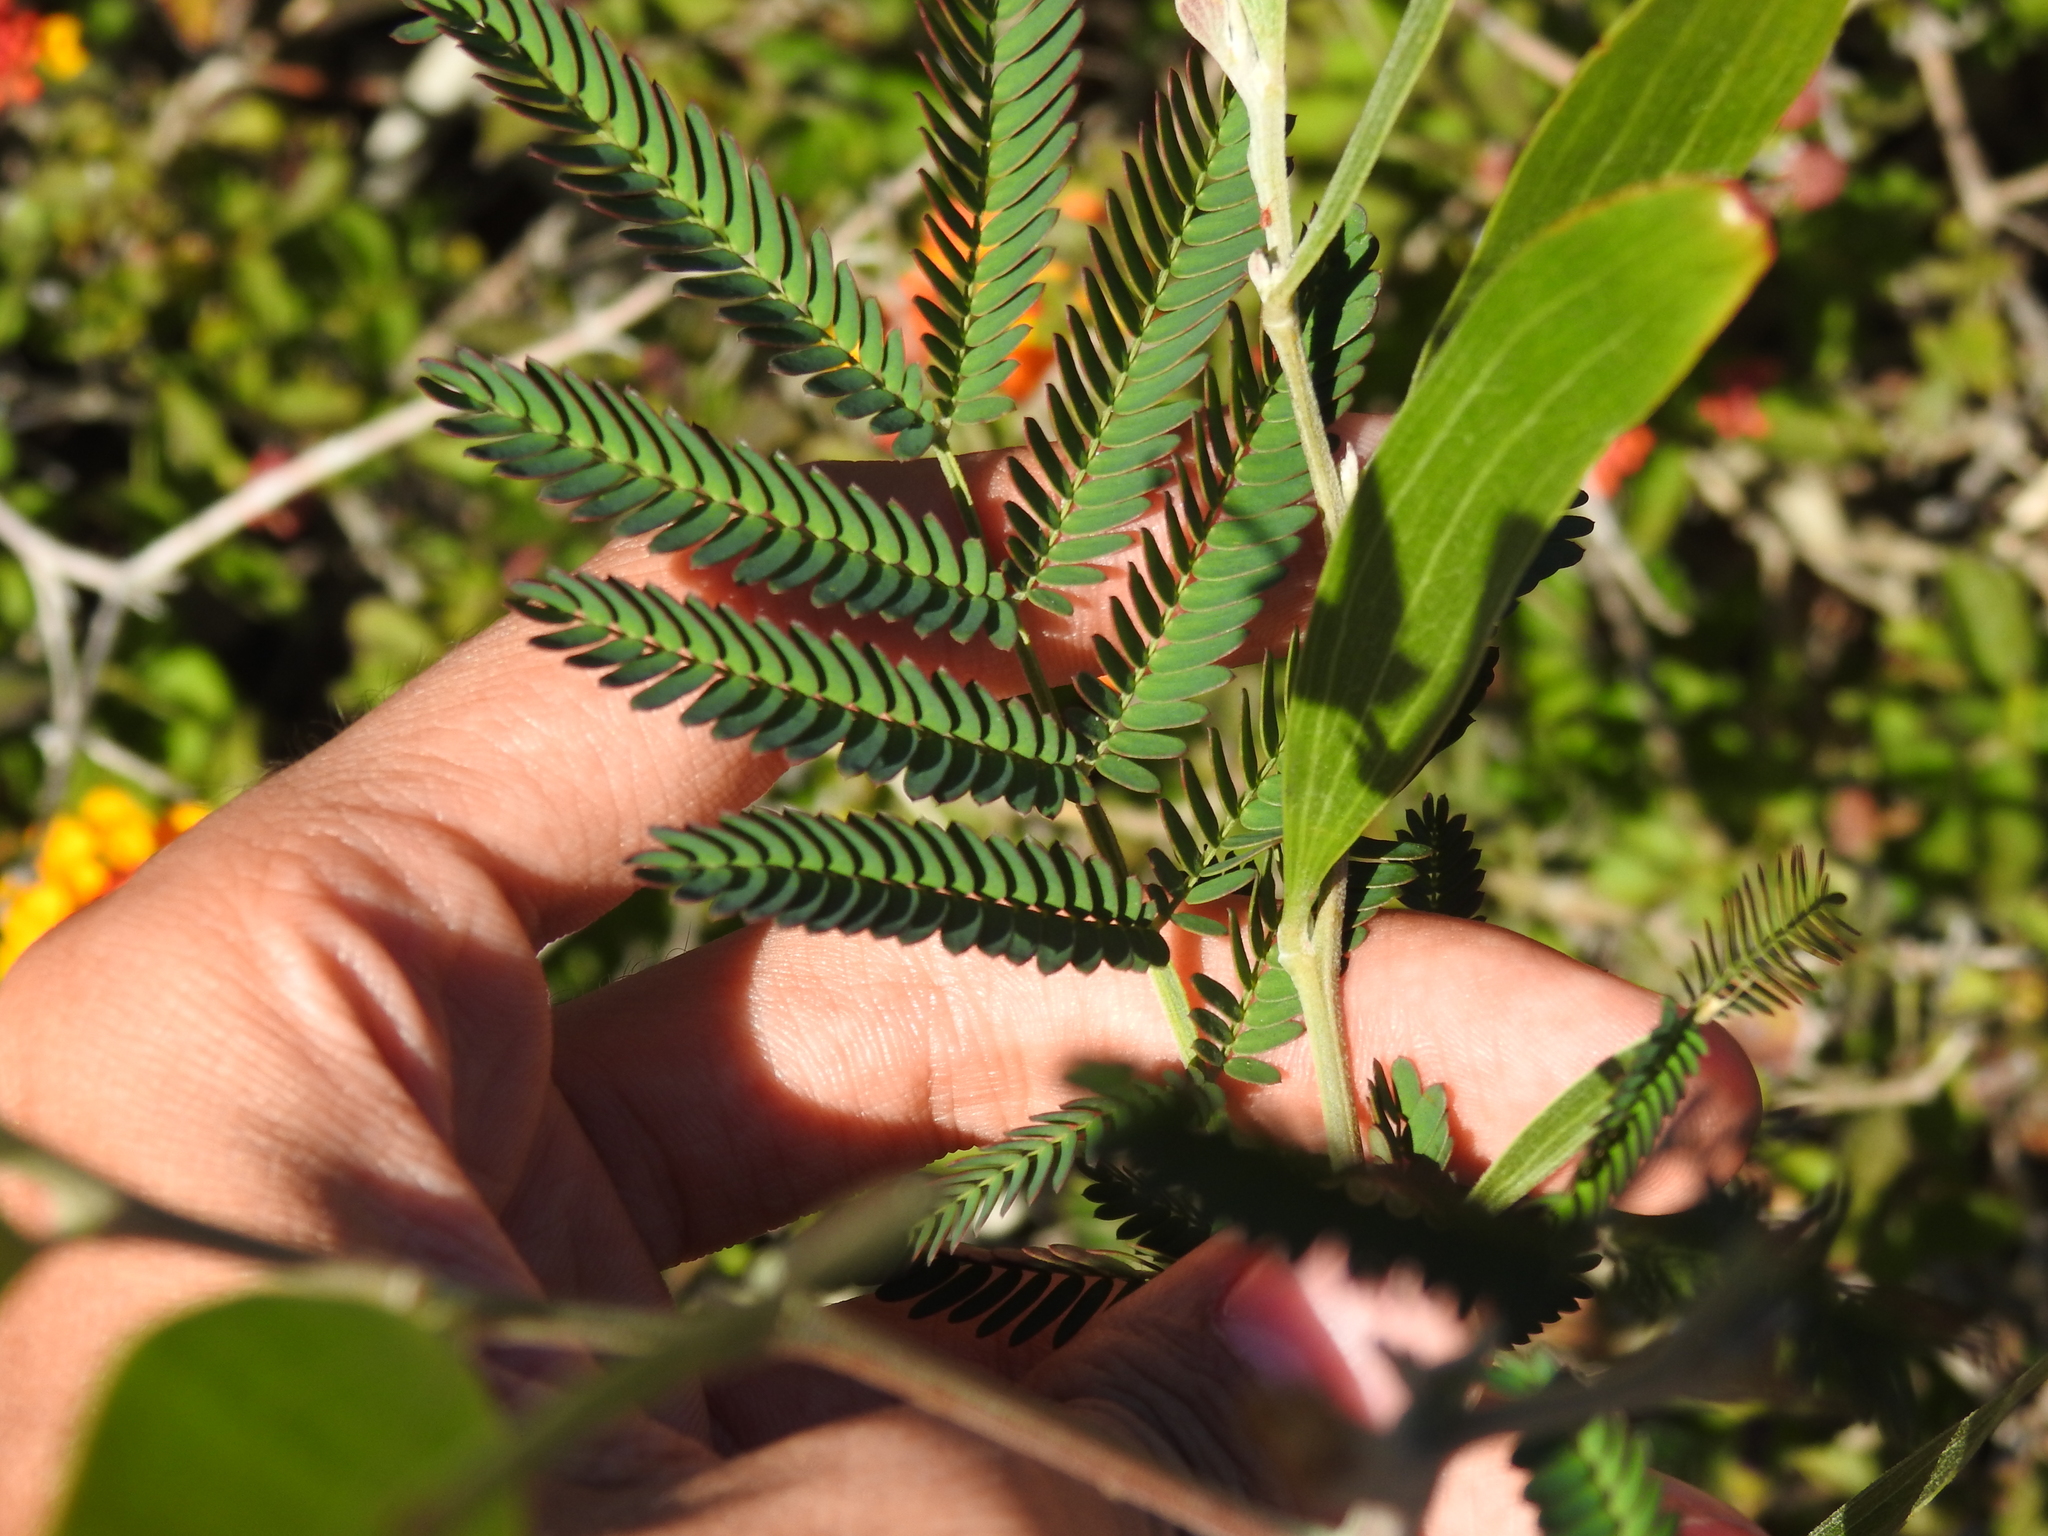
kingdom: Plantae
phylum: Tracheophyta
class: Magnoliopsida
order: Fabales
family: Fabaceae
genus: Acacia
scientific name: Acacia melanoxylon
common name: Blackwood
